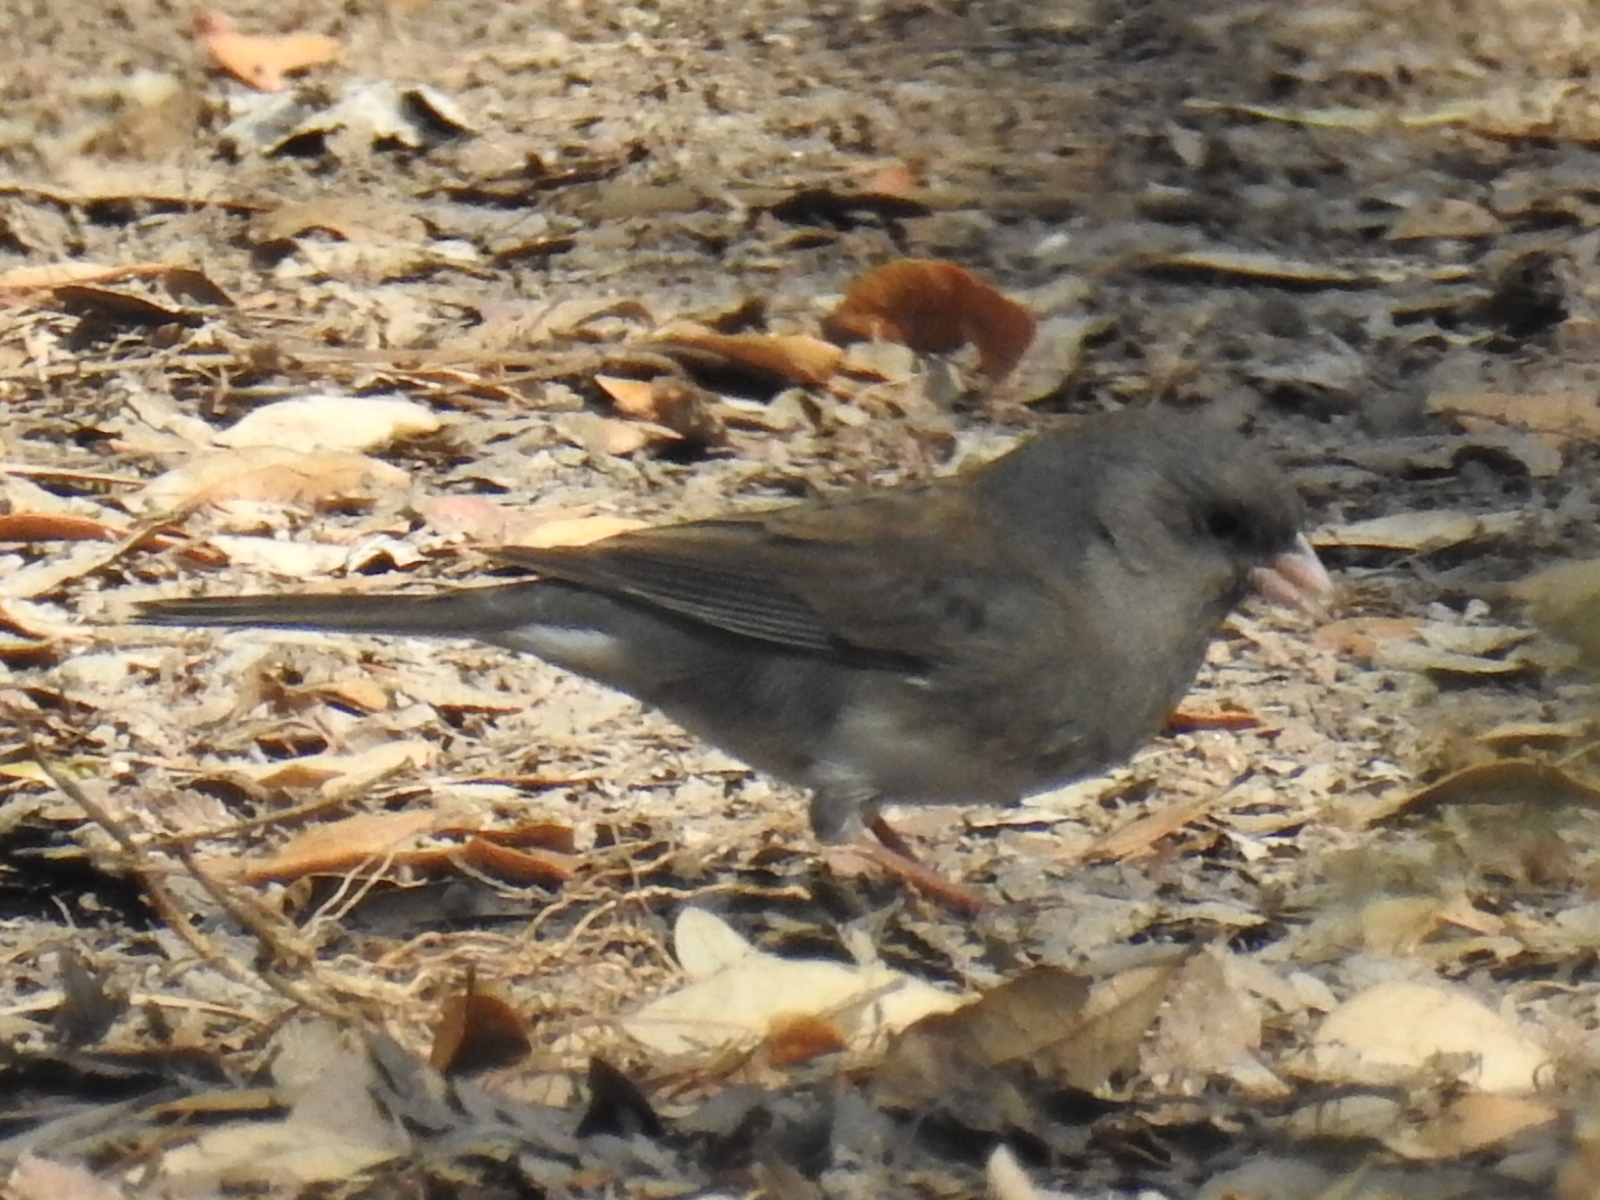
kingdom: Animalia
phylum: Chordata
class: Aves
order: Passeriformes
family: Passerellidae
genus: Junco
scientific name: Junco hyemalis
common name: Dark-eyed junco
